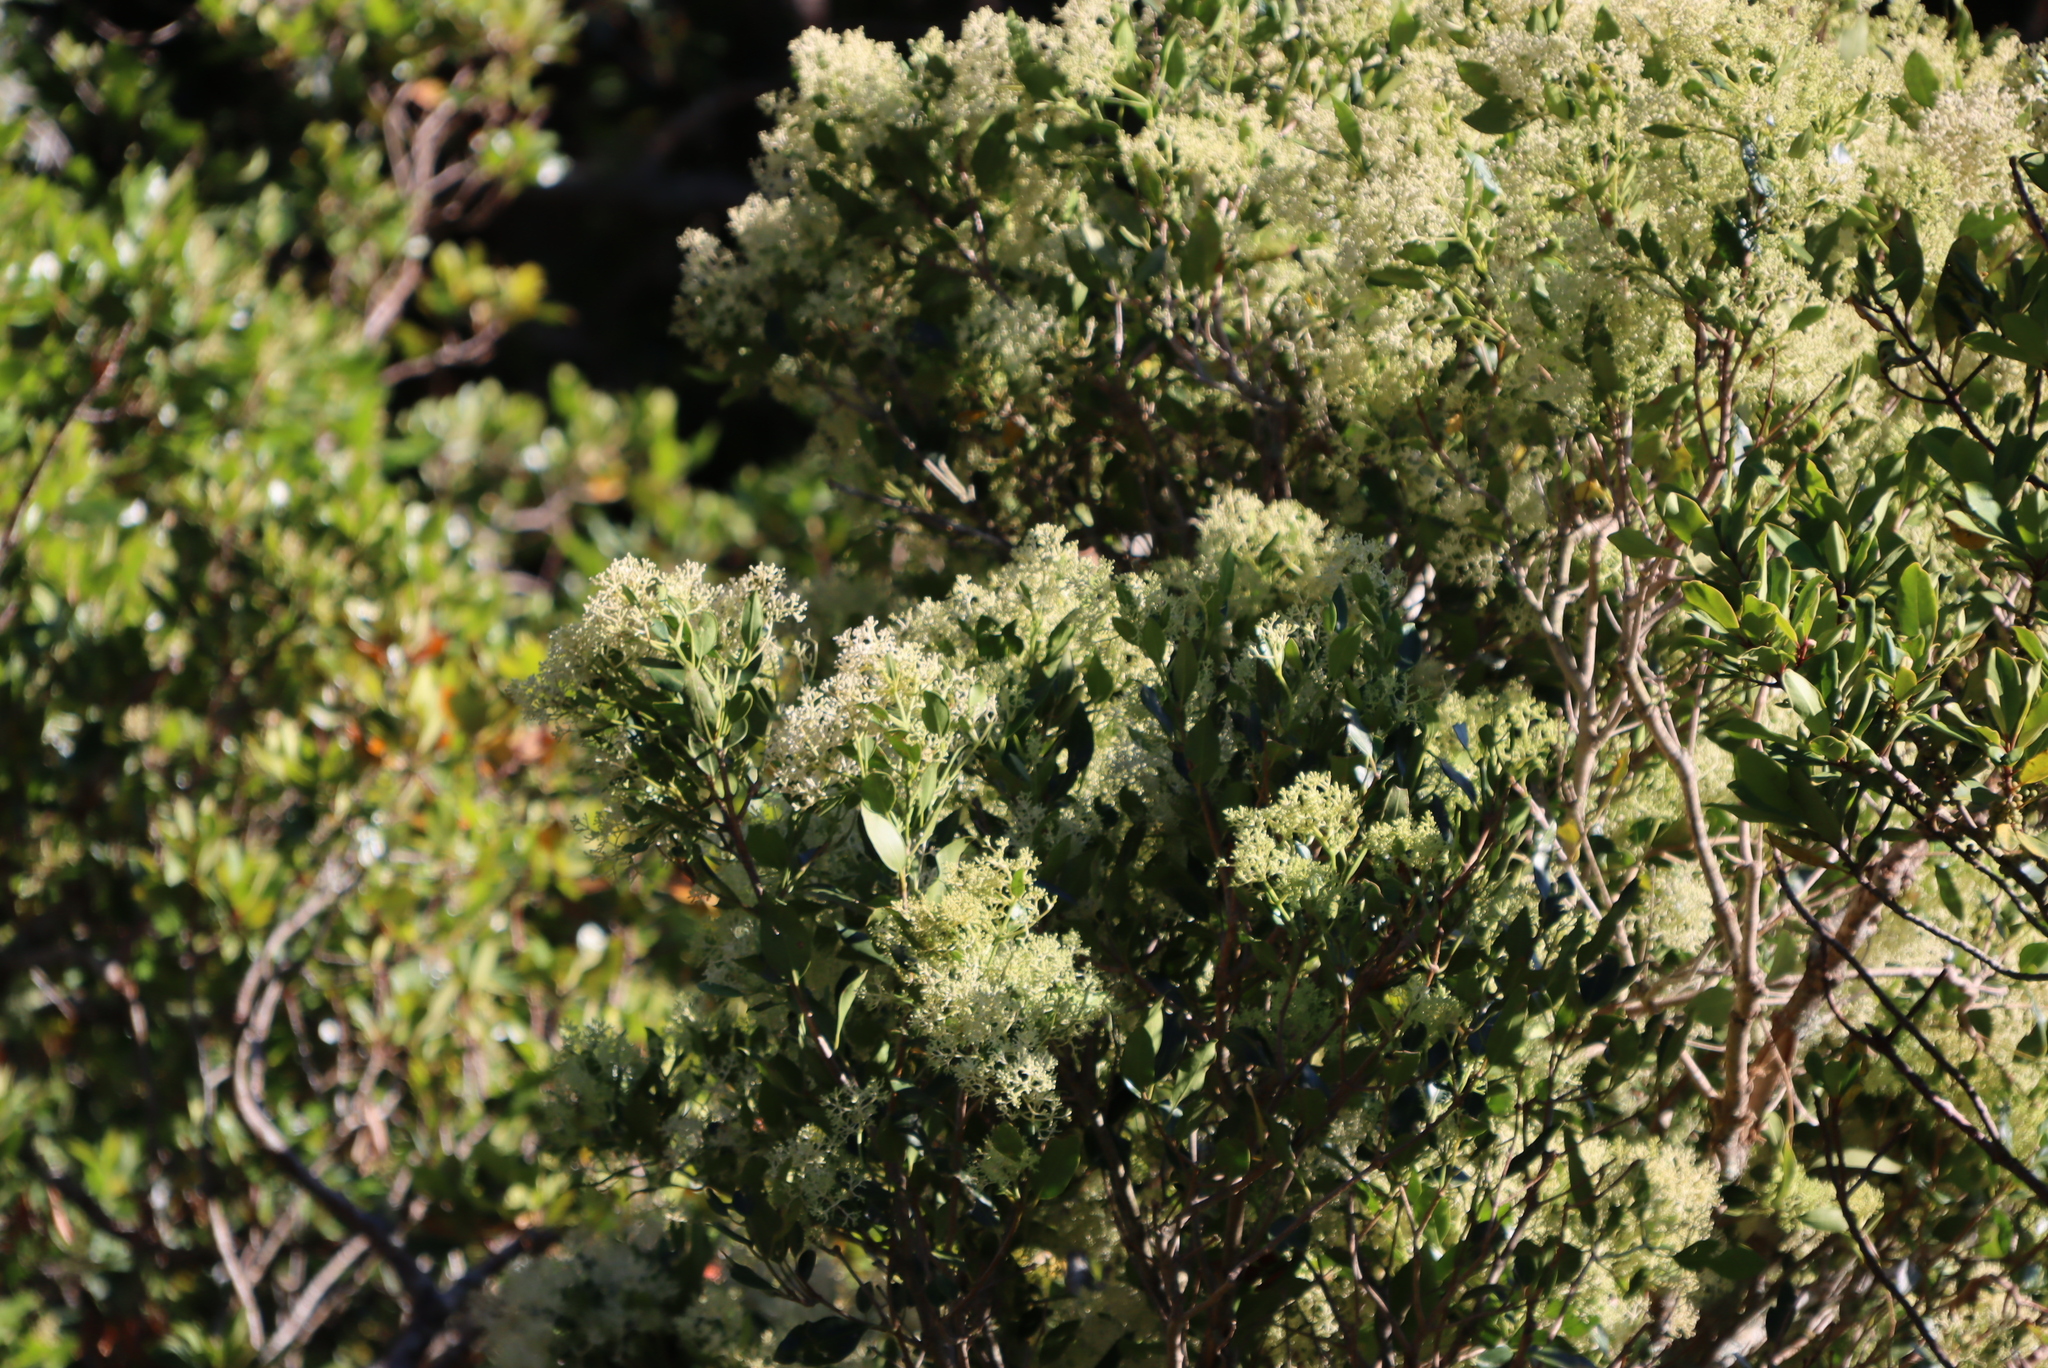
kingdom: Plantae
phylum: Tracheophyta
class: Magnoliopsida
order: Lamiales
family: Oleaceae
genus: Olea
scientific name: Olea capensis
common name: Black ironwood
